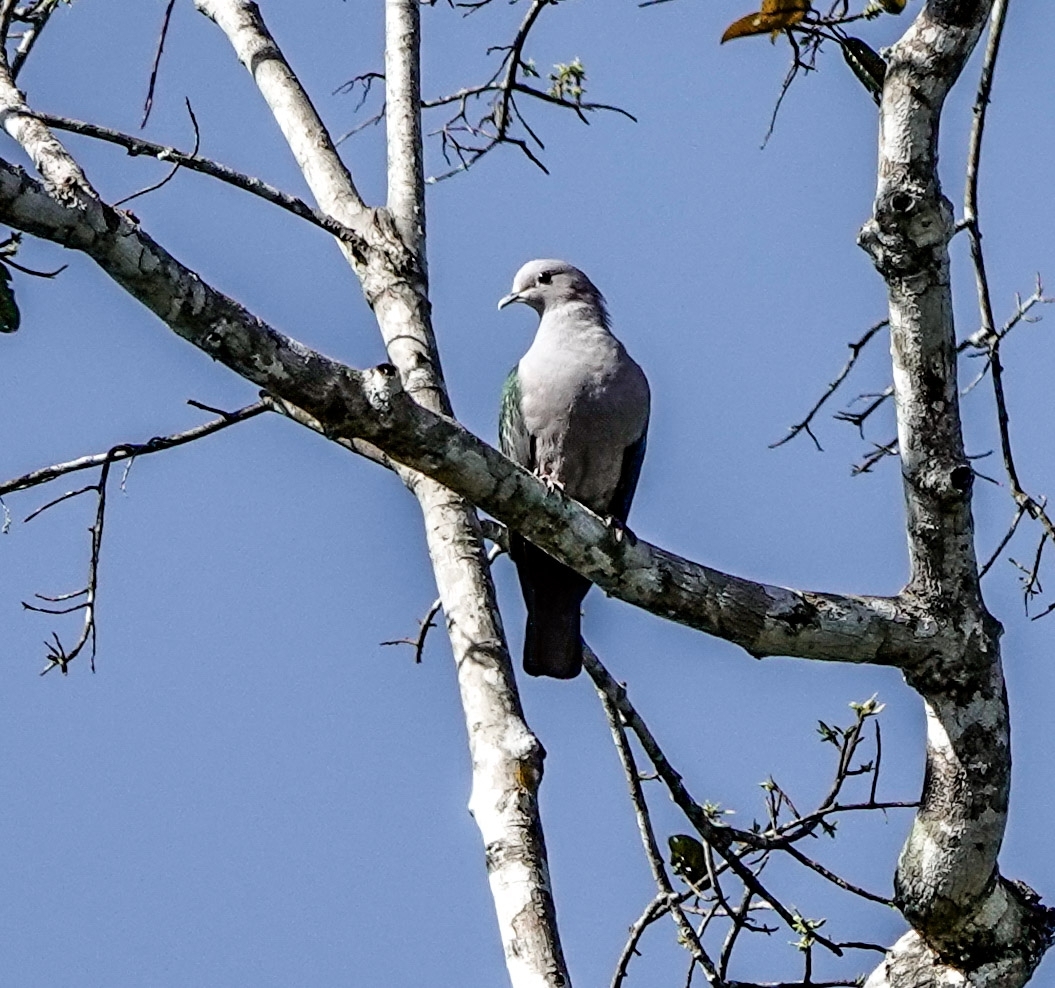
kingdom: Animalia
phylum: Chordata
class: Aves
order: Columbiformes
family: Columbidae
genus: Ducula
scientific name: Ducula aenea
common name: Green imperial pigeon
